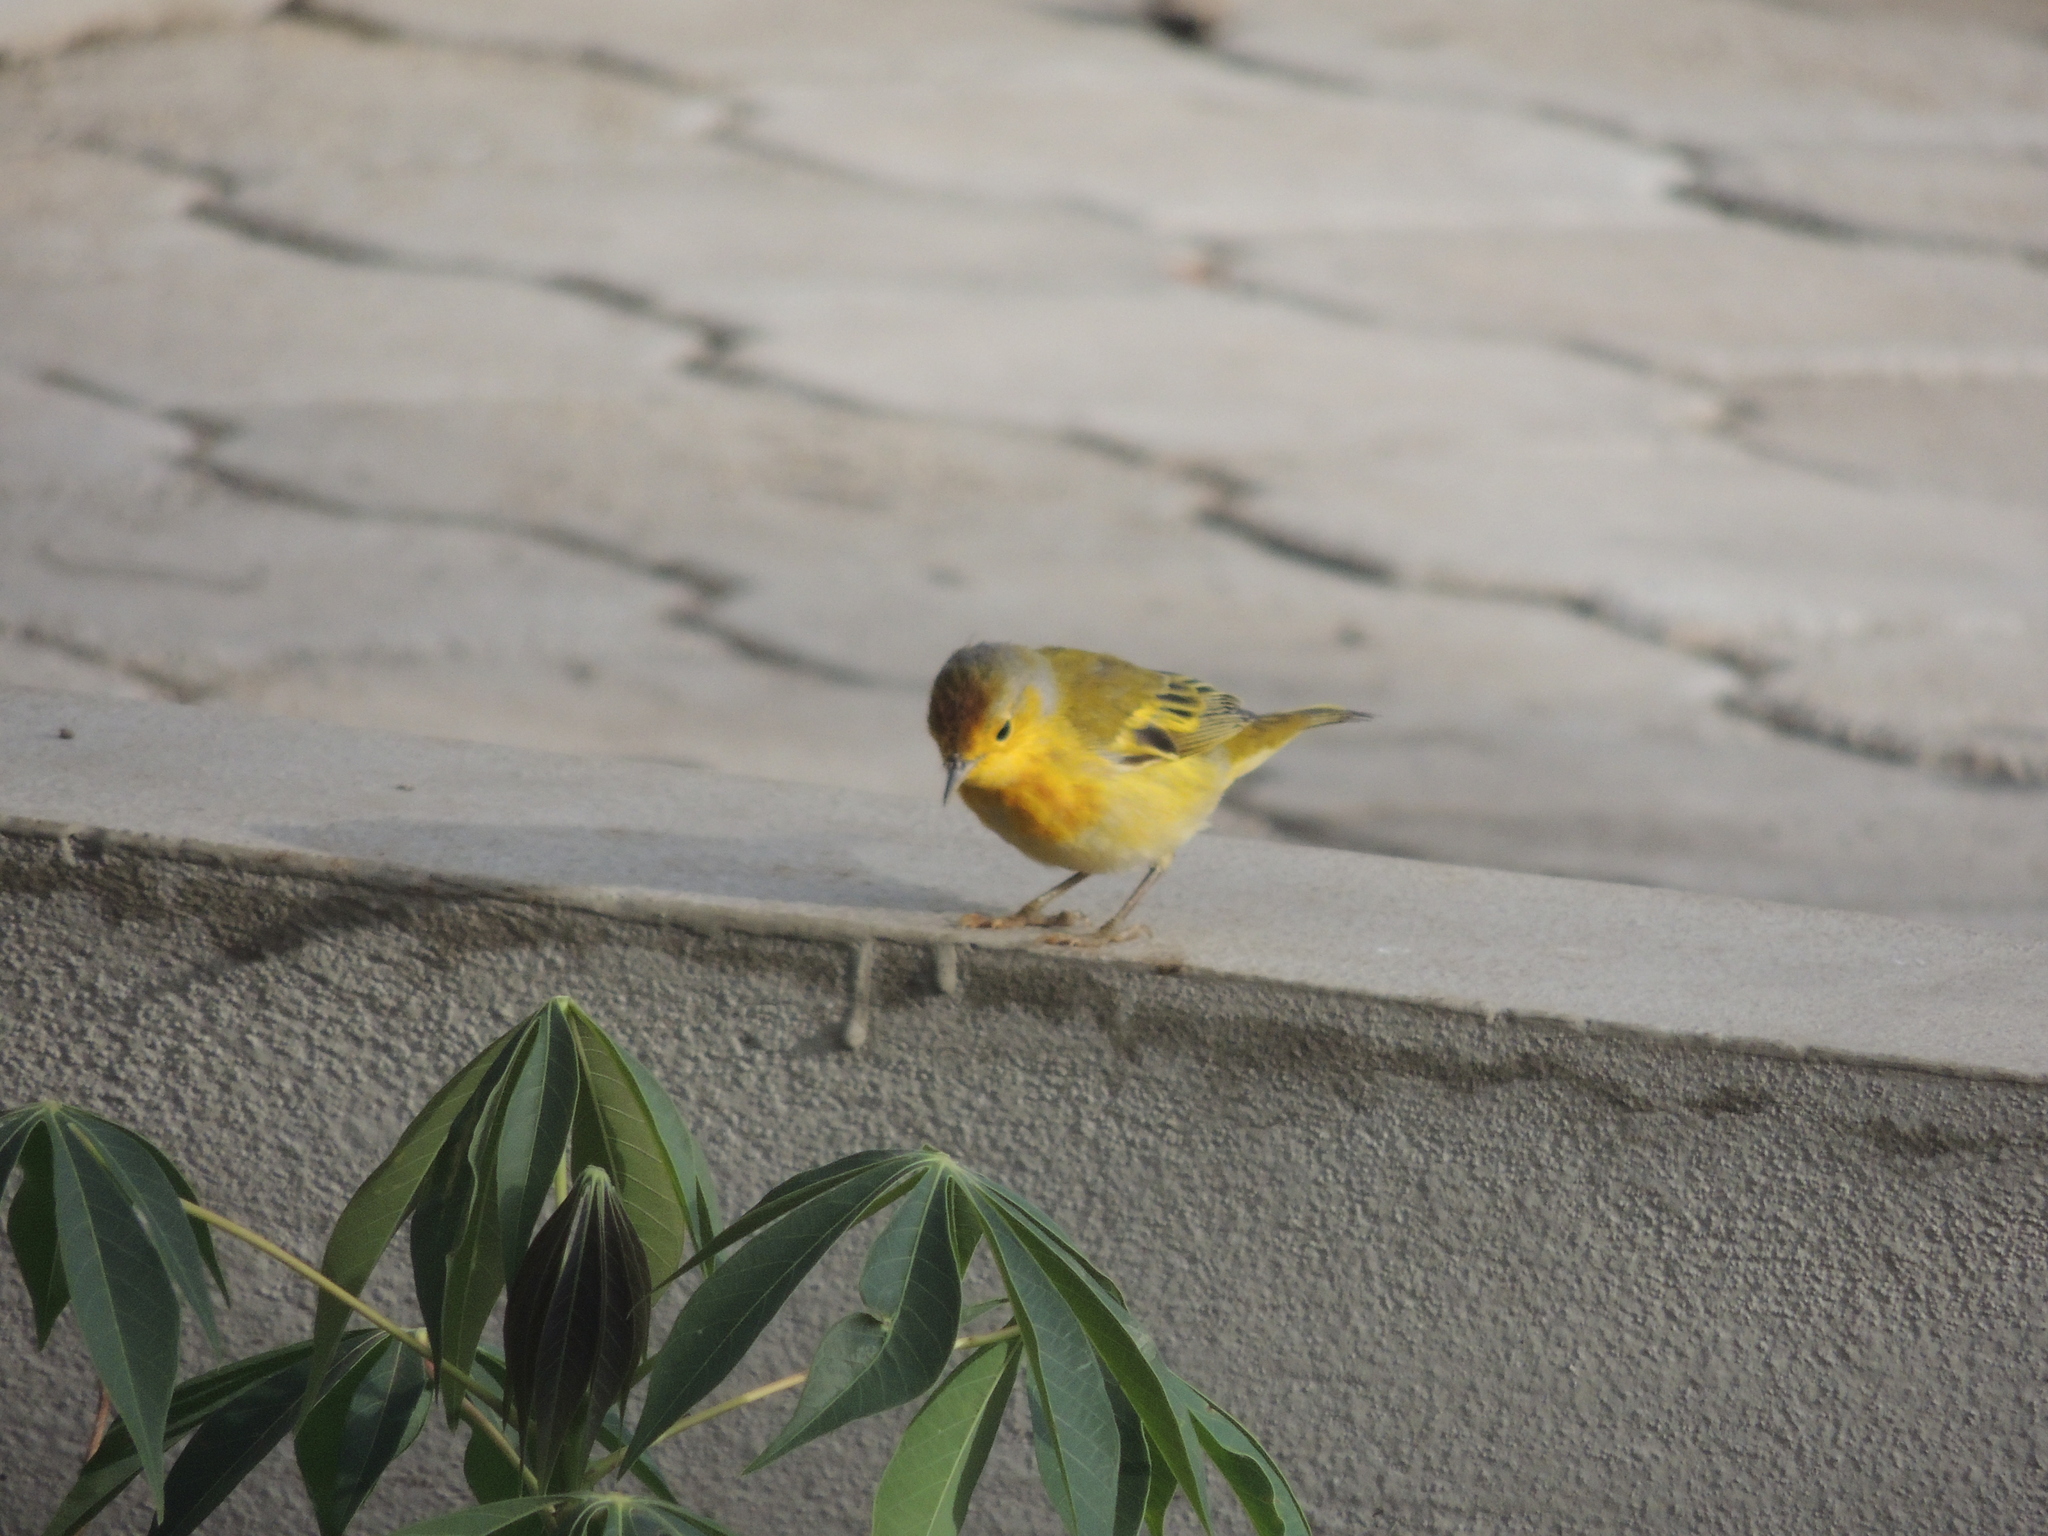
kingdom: Animalia
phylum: Chordata
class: Aves
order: Passeriformes
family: Parulidae
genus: Setophaga
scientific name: Setophaga petechia
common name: Yellow warbler
